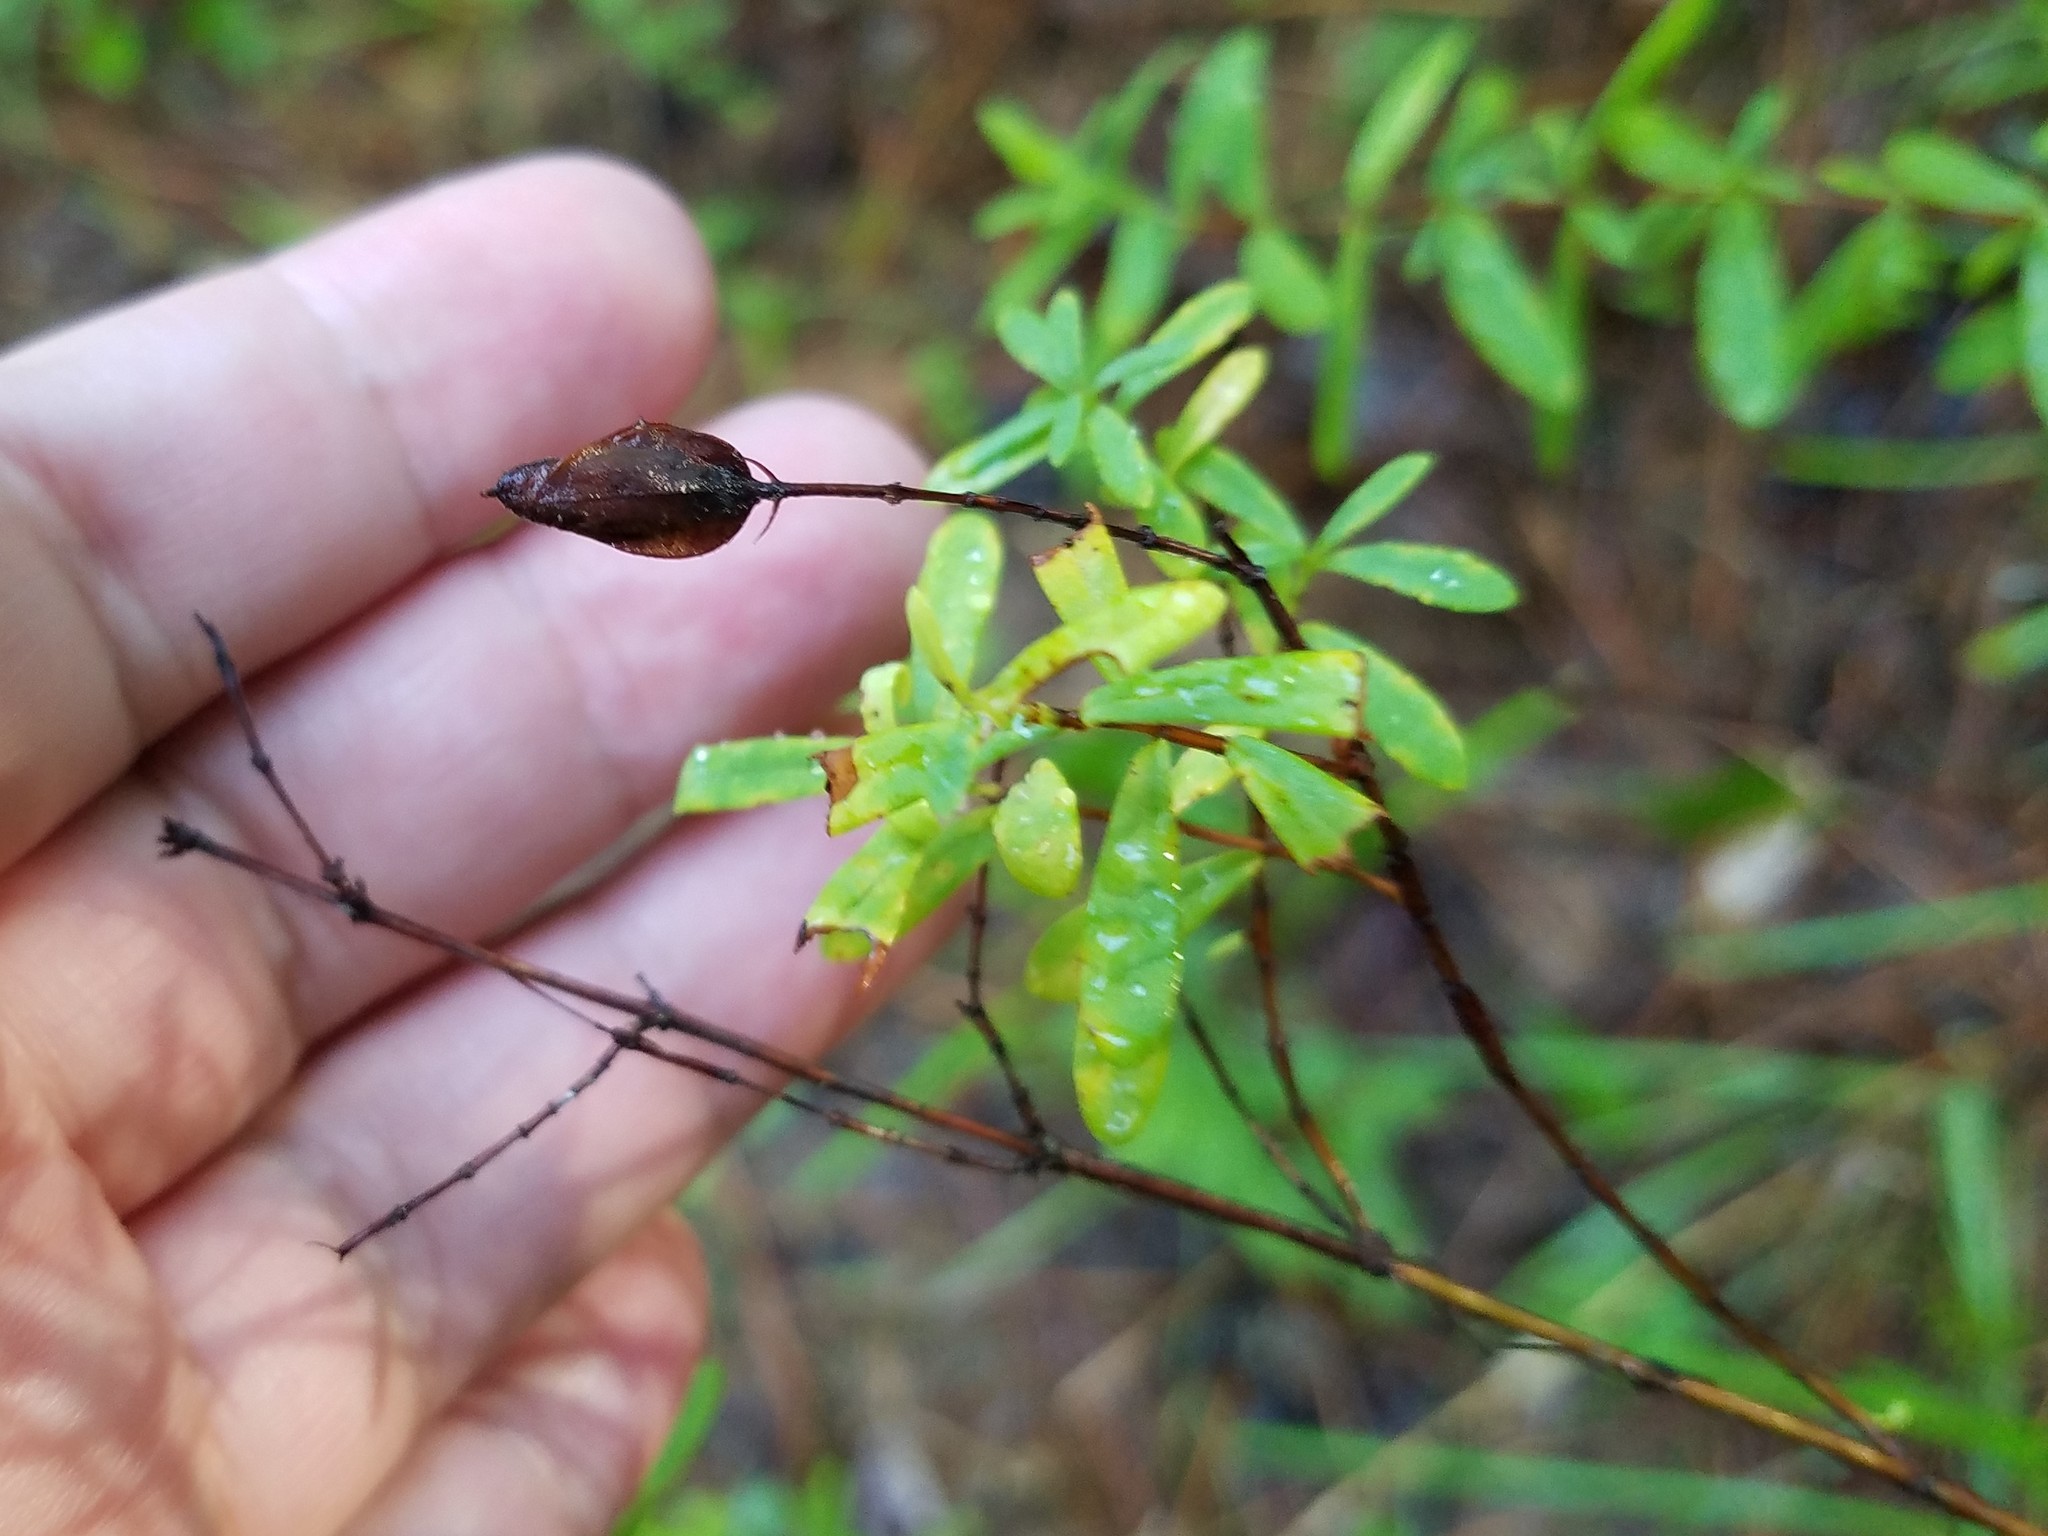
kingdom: Plantae
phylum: Tracheophyta
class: Magnoliopsida
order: Malpighiales
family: Hypericaceae
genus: Hypericum
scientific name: Hypericum hypericoides
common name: St. andrew's cross
